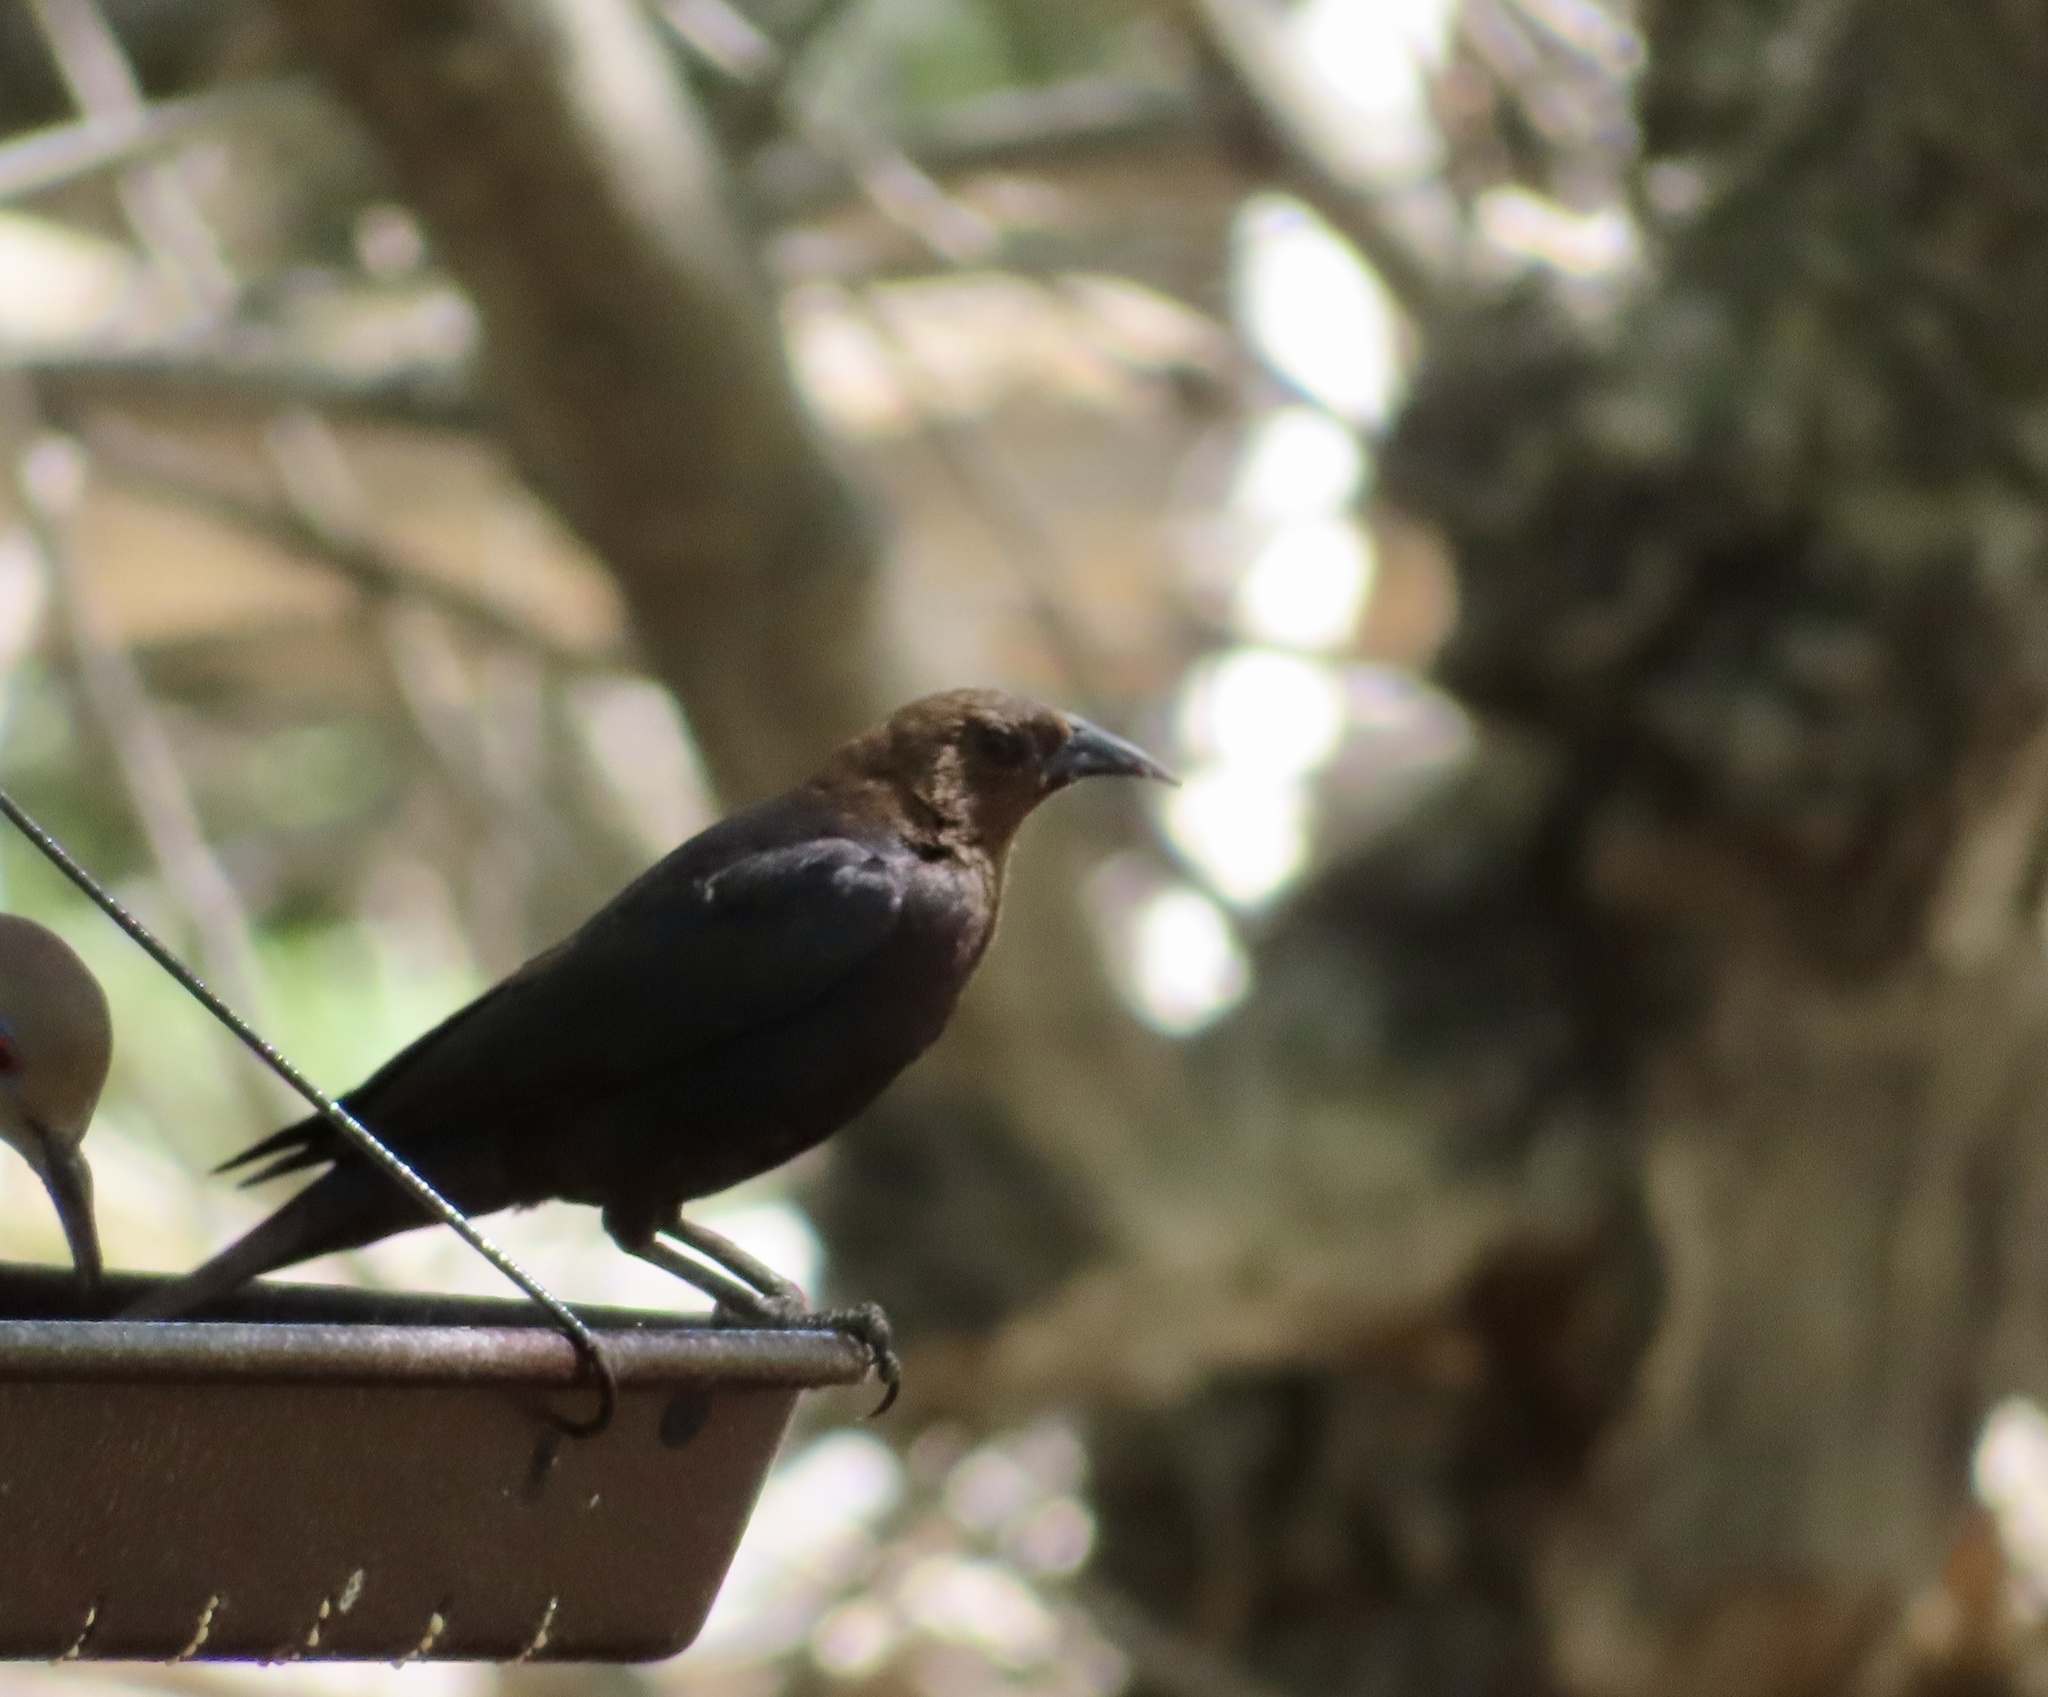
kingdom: Animalia
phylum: Chordata
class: Aves
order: Passeriformes
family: Icteridae
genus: Molothrus
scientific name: Molothrus ater
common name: Brown-headed cowbird
